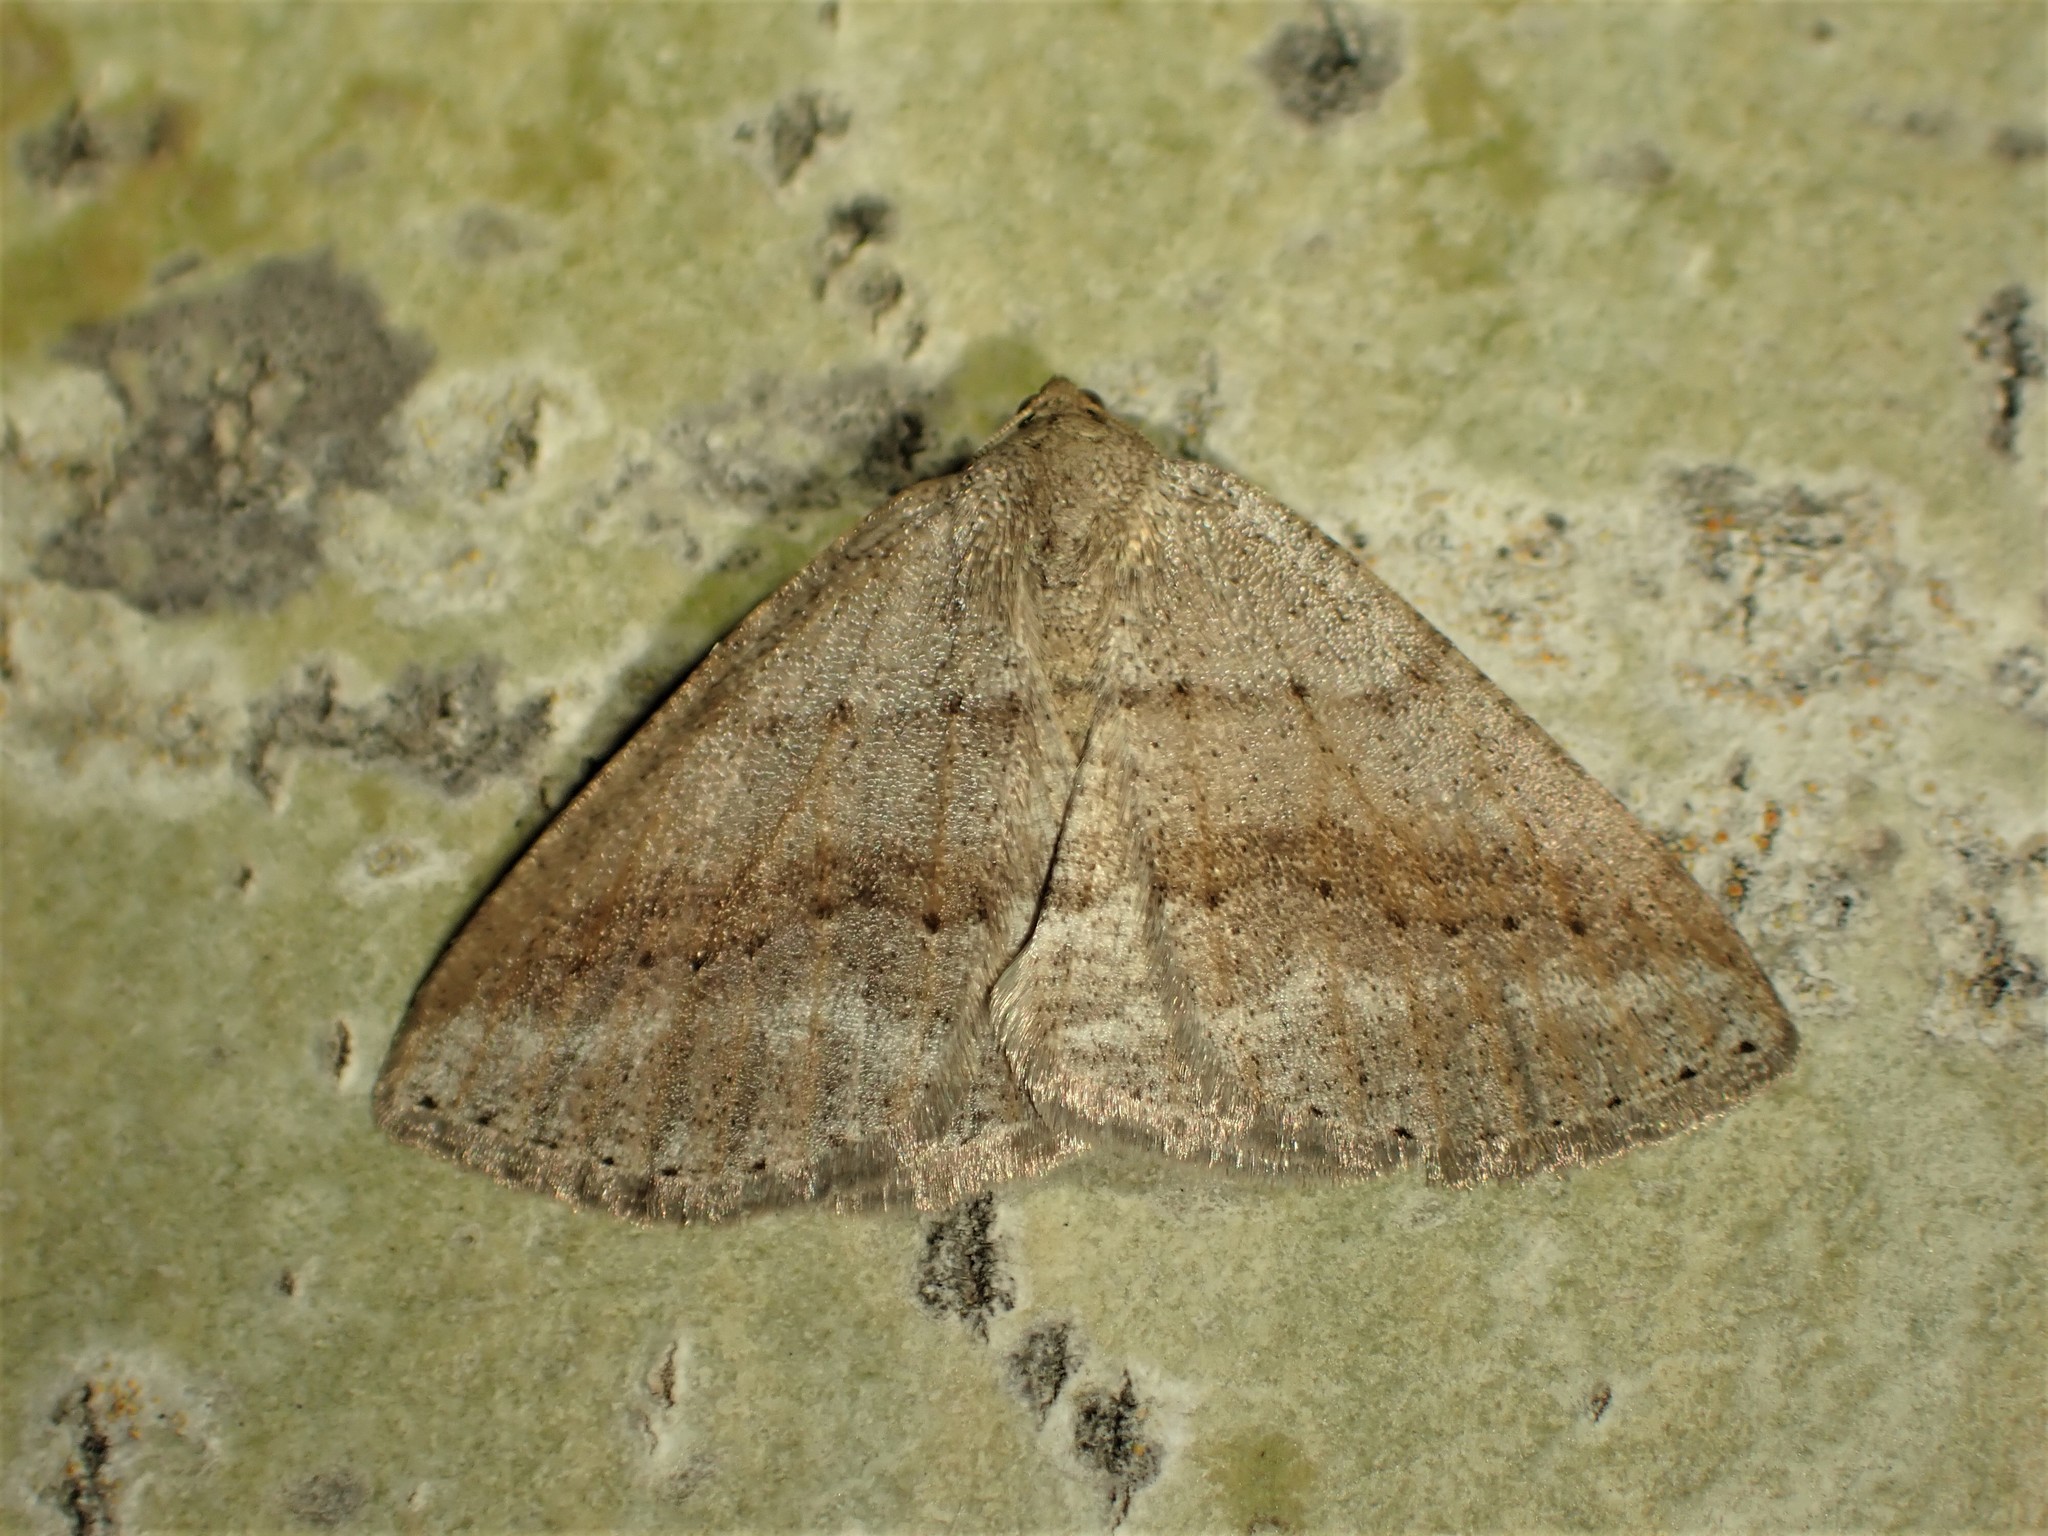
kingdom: Animalia
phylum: Arthropoda
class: Insecta
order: Lepidoptera
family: Geometridae
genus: Tacparia
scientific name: Tacparia detersata
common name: Pale alder moth
